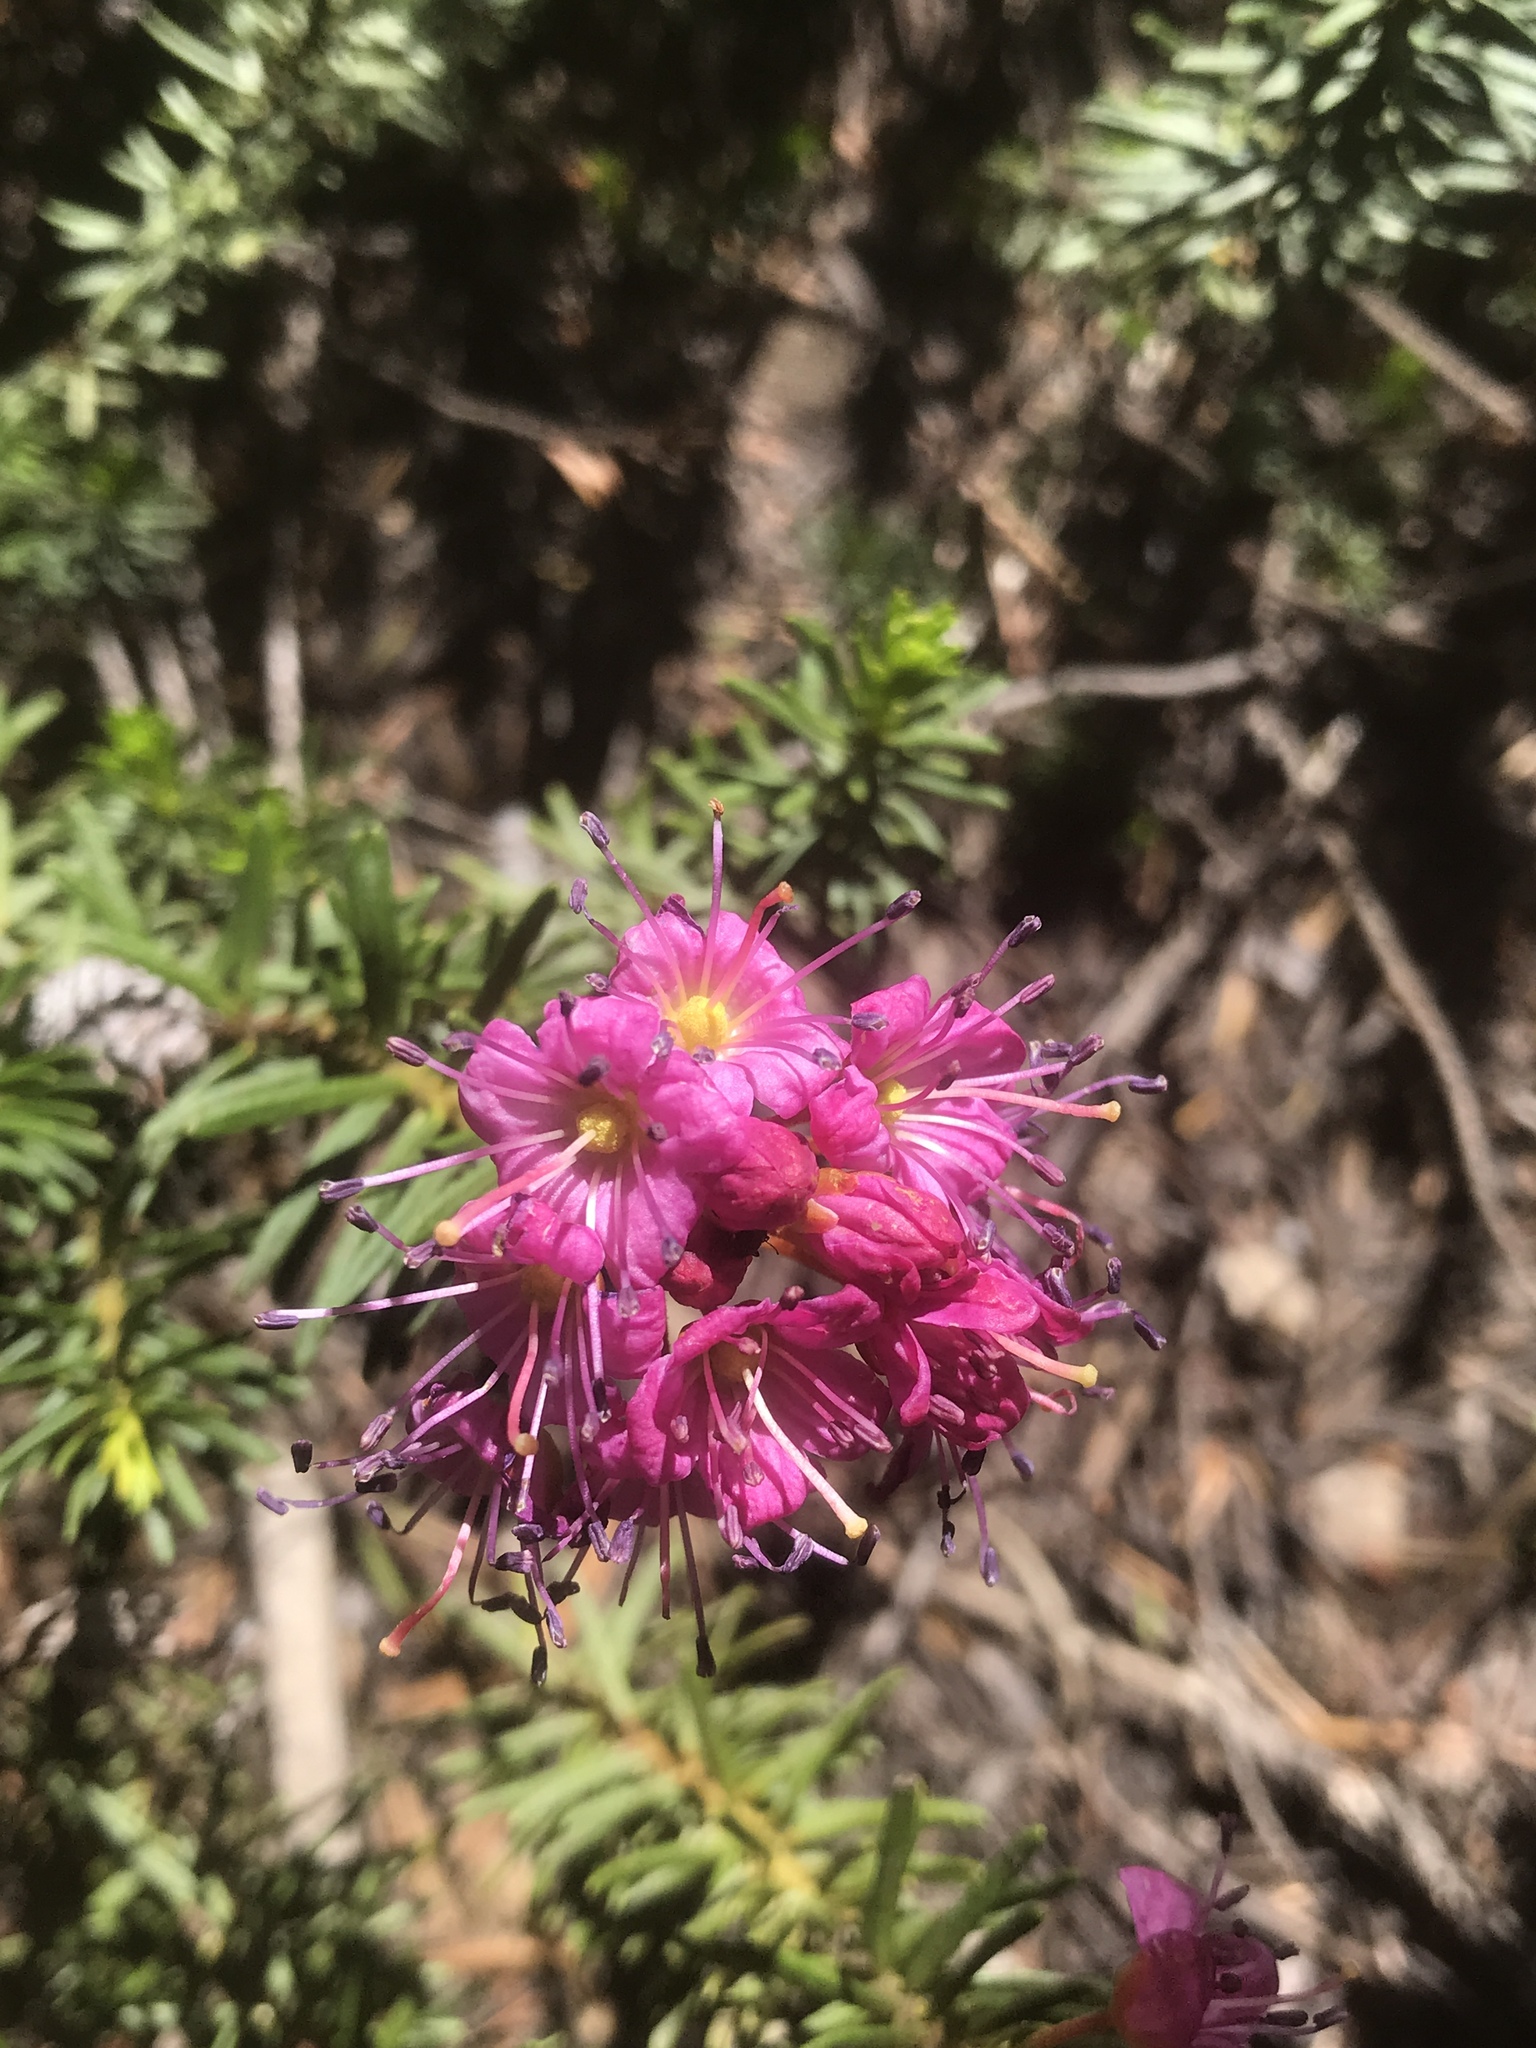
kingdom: Plantae
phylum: Tracheophyta
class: Magnoliopsida
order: Ericales
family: Ericaceae
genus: Phyllodoce
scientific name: Phyllodoce breweri
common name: Brewer's mountain-heather
